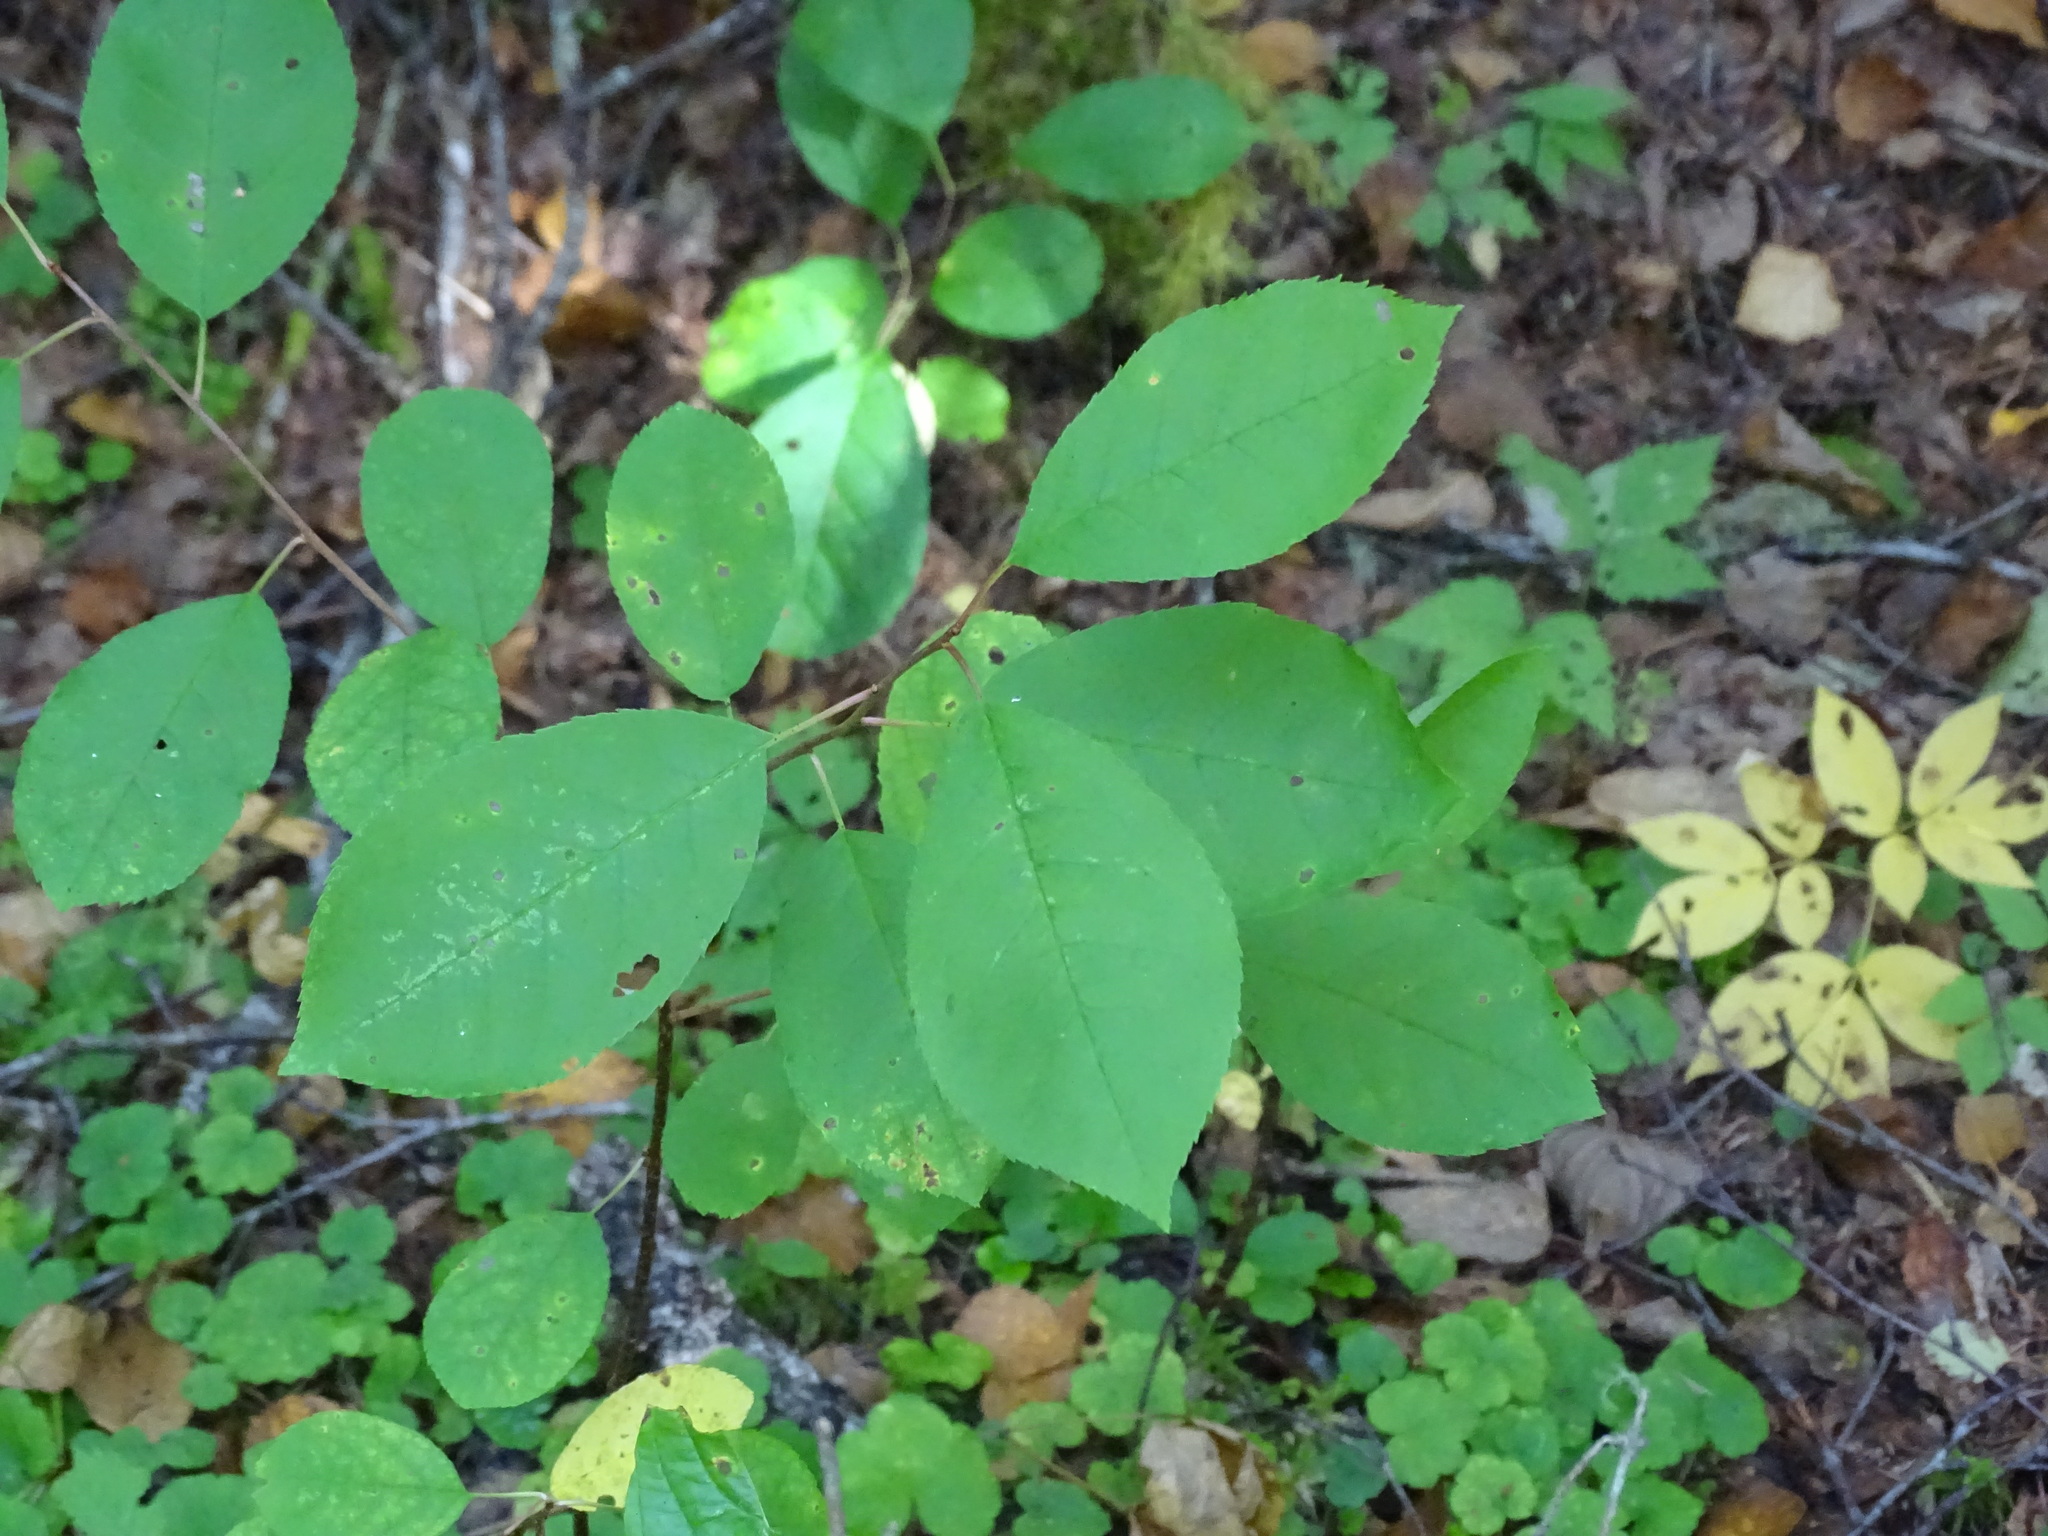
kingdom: Plantae
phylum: Tracheophyta
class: Magnoliopsida
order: Rosales
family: Rosaceae
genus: Prunus
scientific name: Prunus virginiana
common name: Chokecherry
